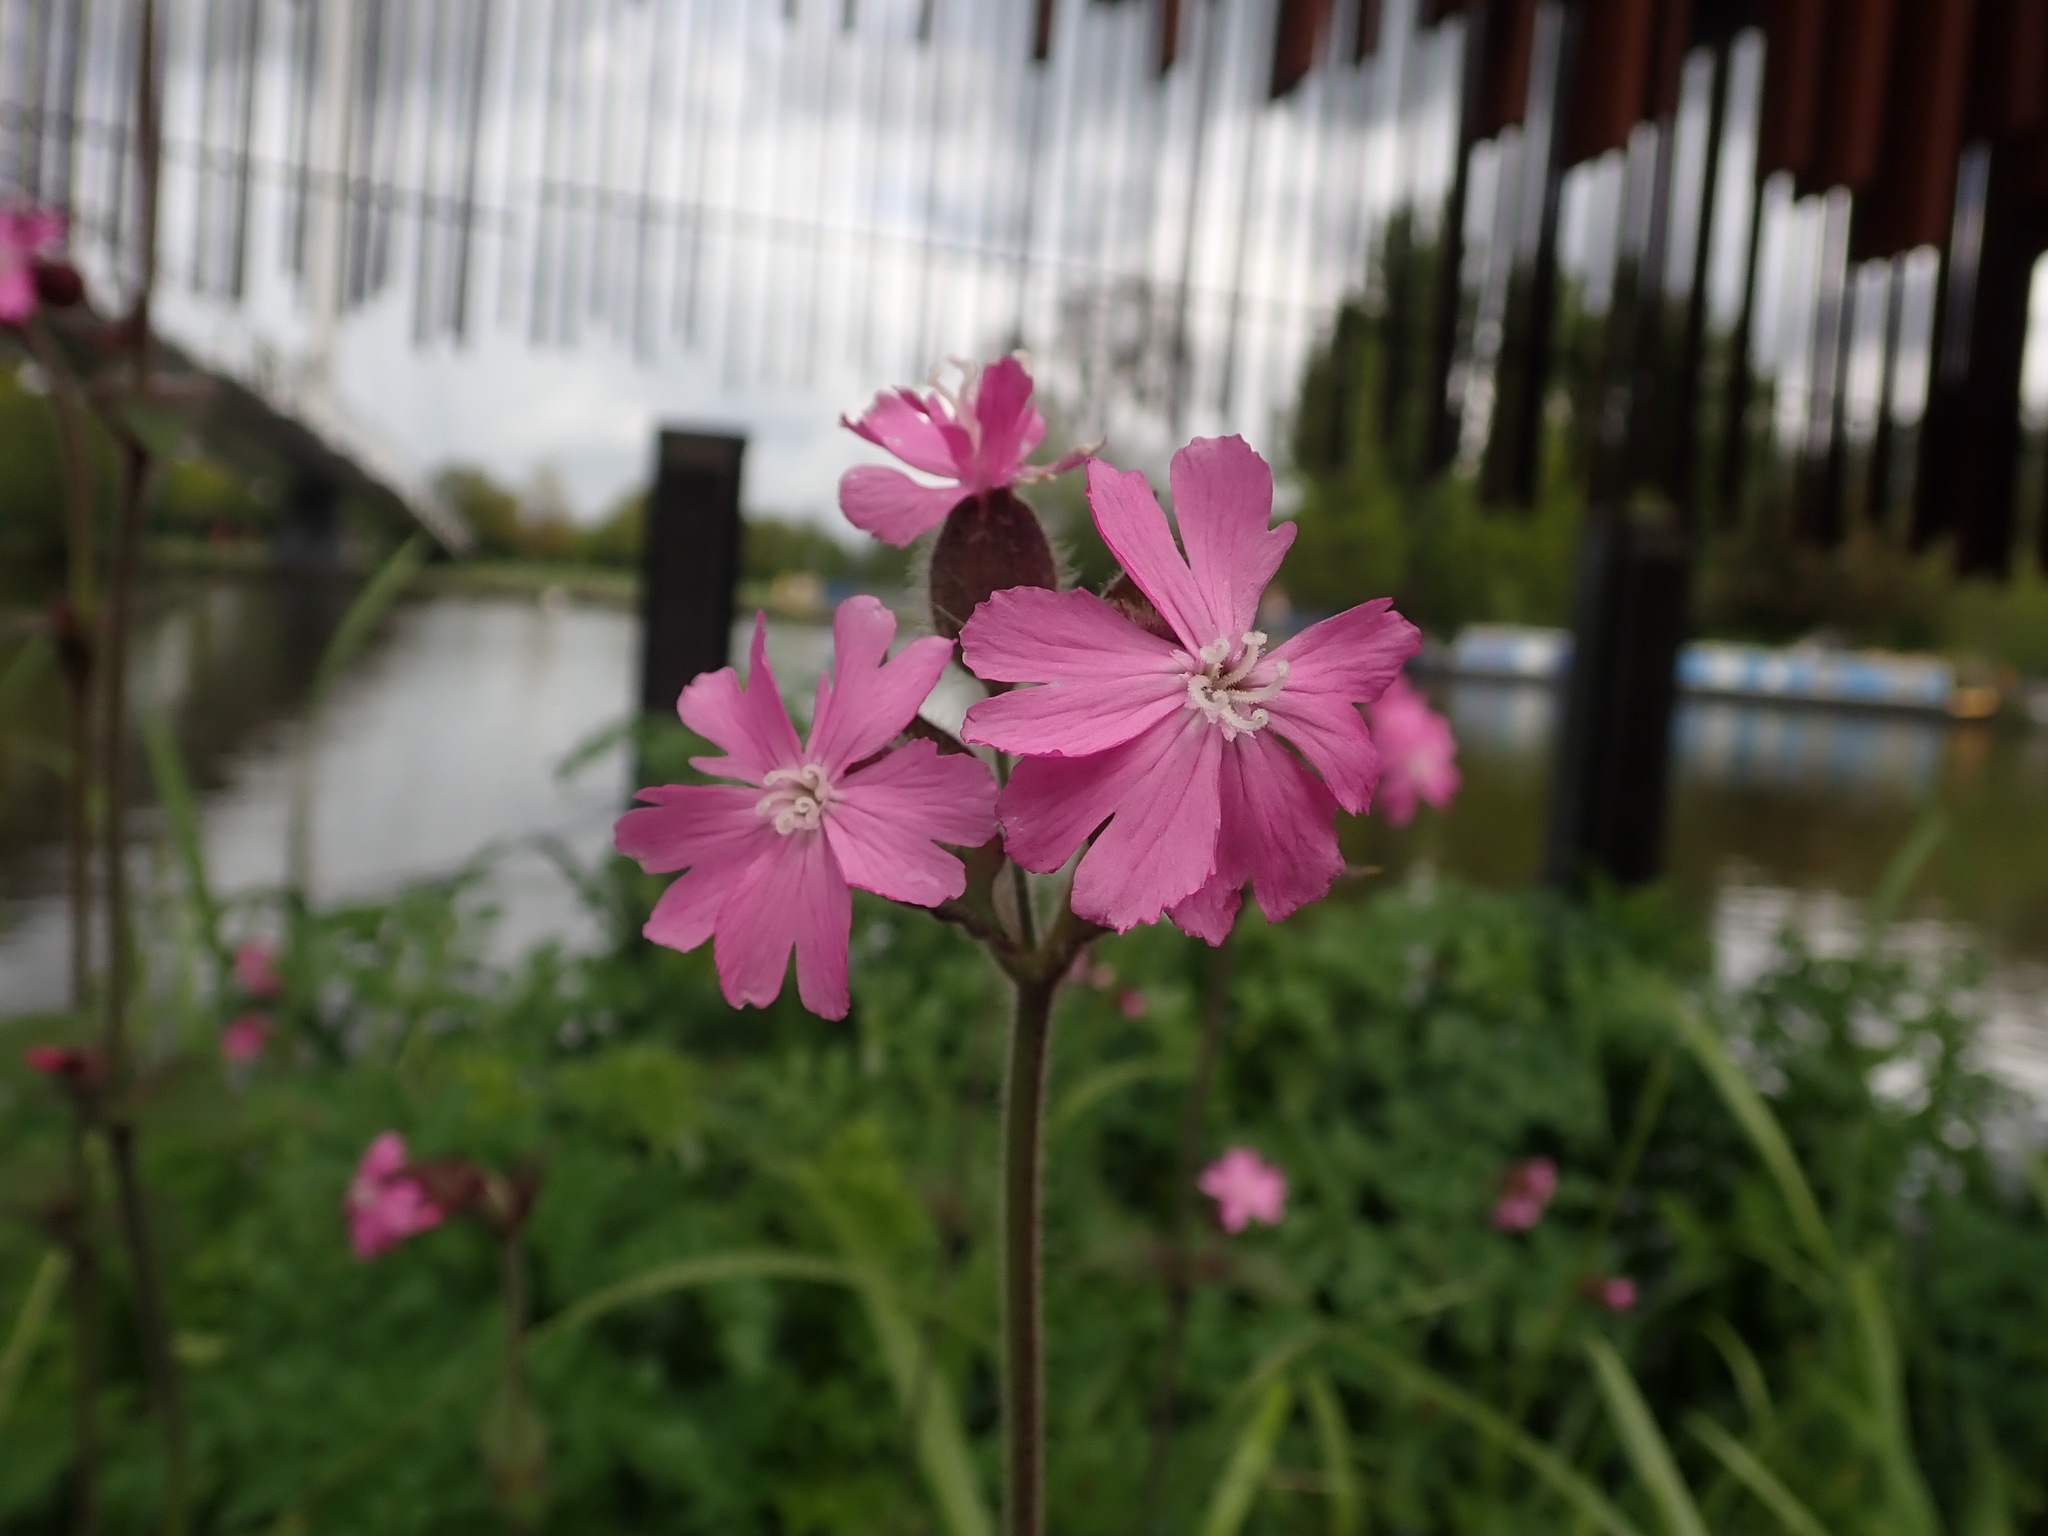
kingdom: Plantae
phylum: Tracheophyta
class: Magnoliopsida
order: Caryophyllales
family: Caryophyllaceae
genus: Silene
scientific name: Silene dioica
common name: Red campion
